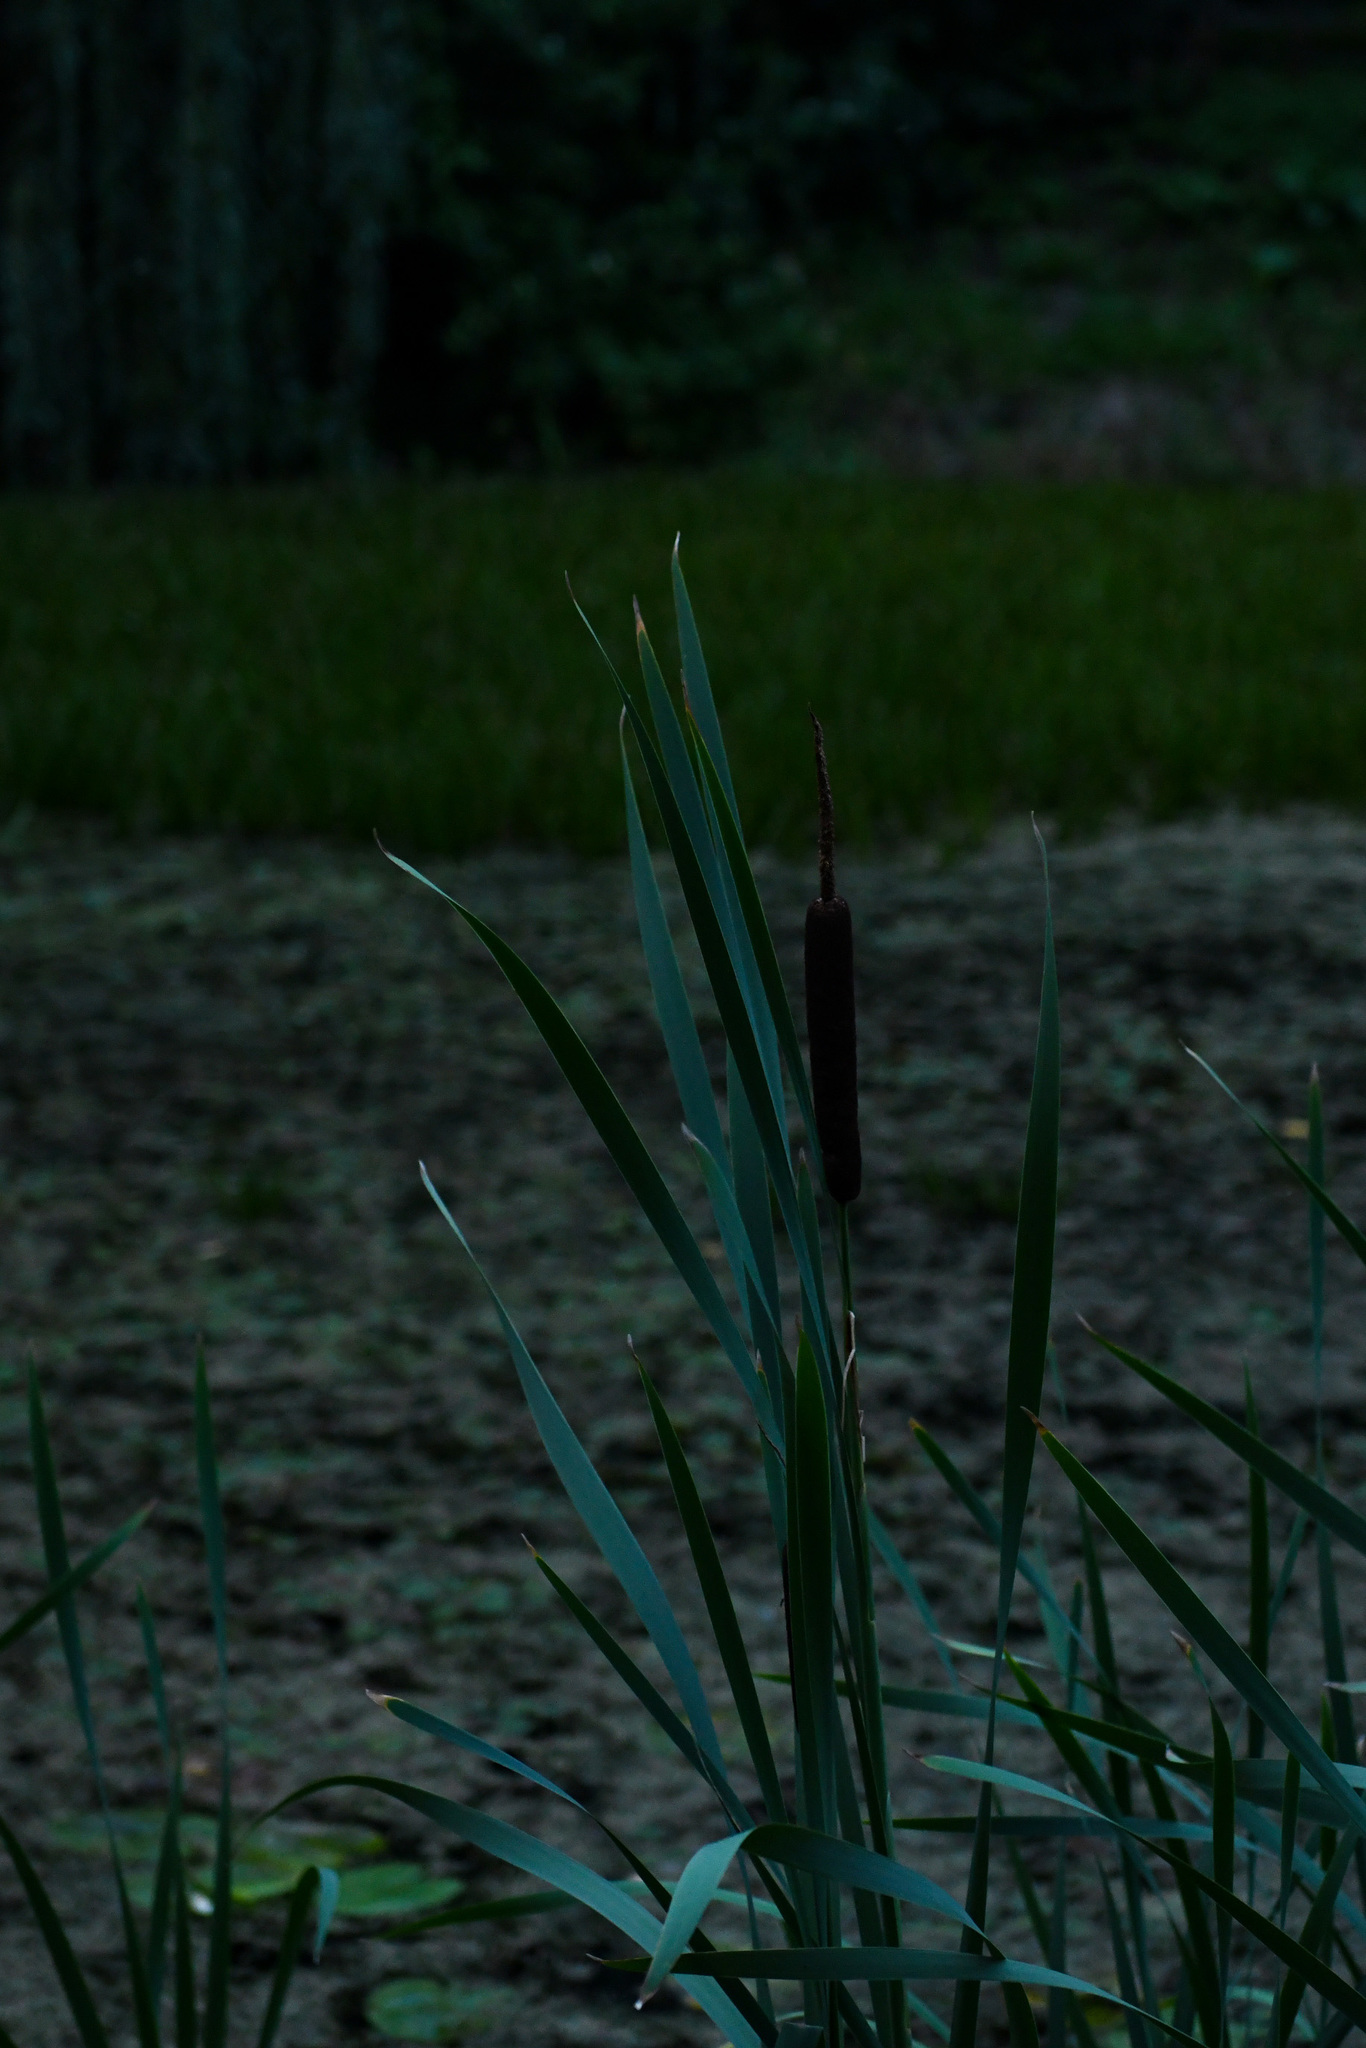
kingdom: Plantae
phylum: Tracheophyta
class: Liliopsida
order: Poales
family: Typhaceae
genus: Typha
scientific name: Typha latifolia
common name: Broadleaf cattail
